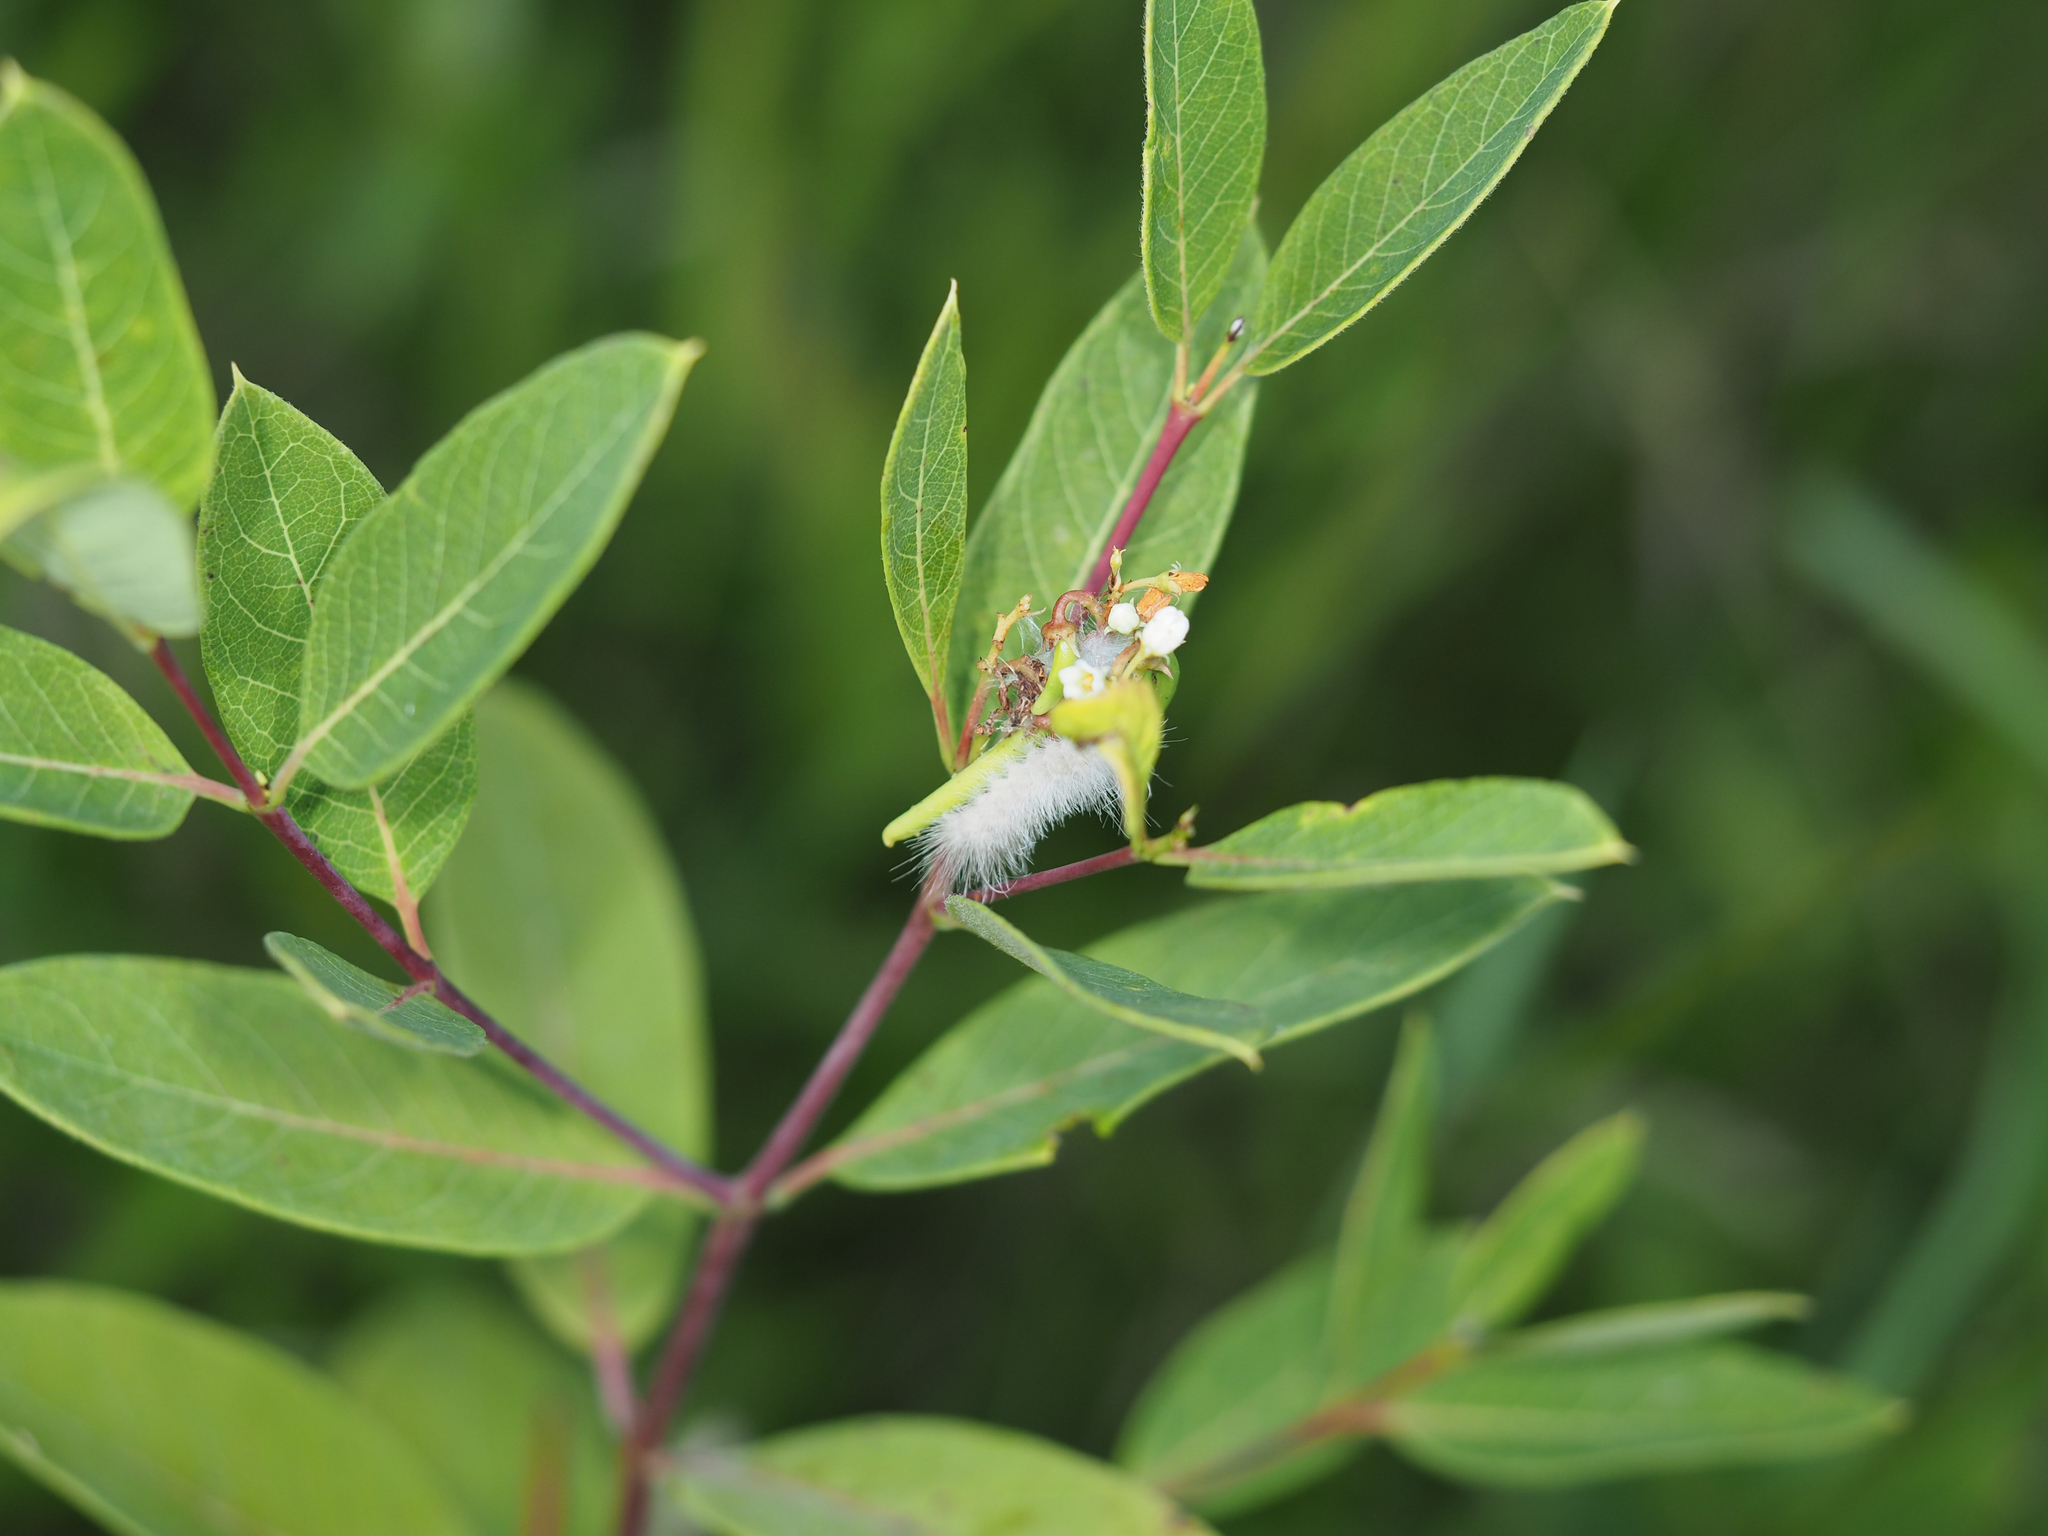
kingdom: Animalia
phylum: Arthropoda
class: Insecta
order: Lepidoptera
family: Erebidae
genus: Cycnia
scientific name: Cycnia tenera
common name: Delicate cycnia moth
